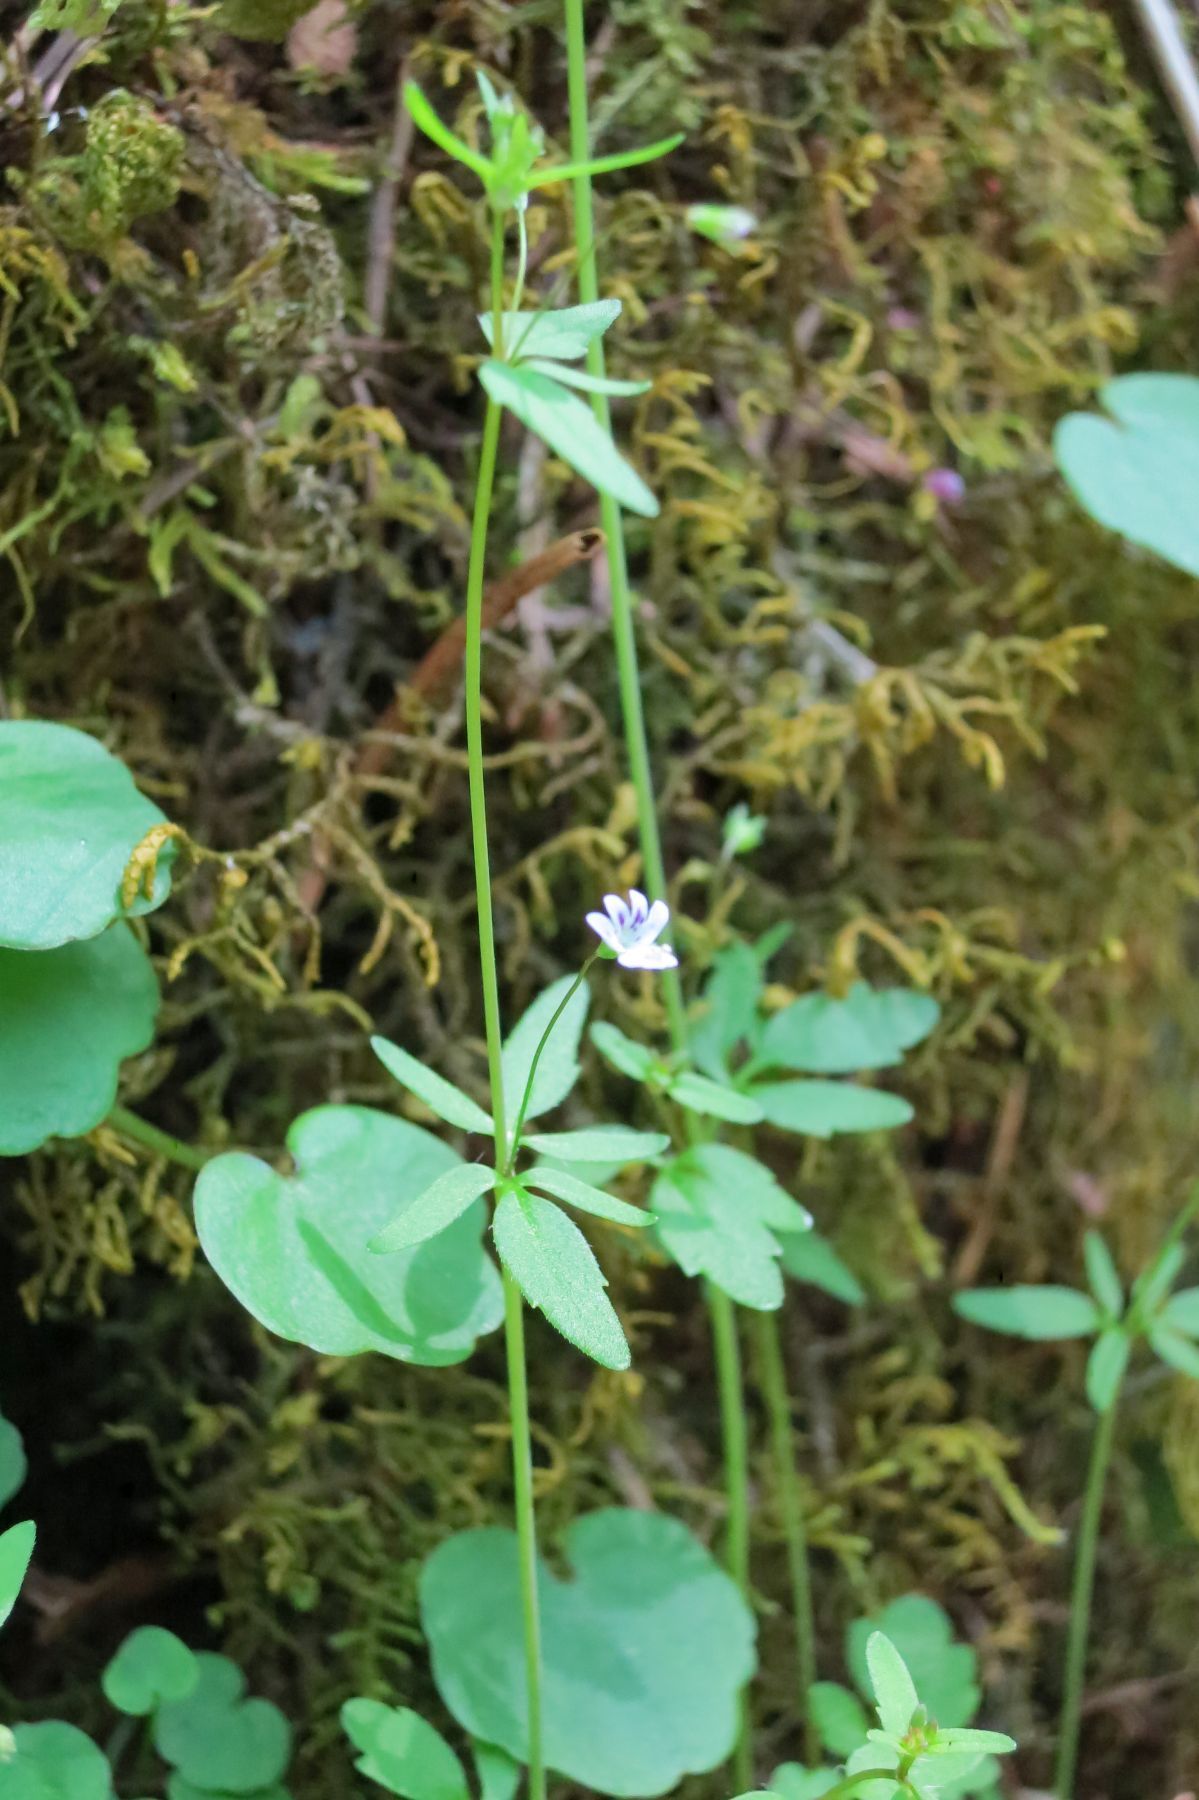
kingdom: Plantae
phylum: Tracheophyta
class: Magnoliopsida
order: Lamiales
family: Plantaginaceae
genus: Tonella
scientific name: Tonella tenella
